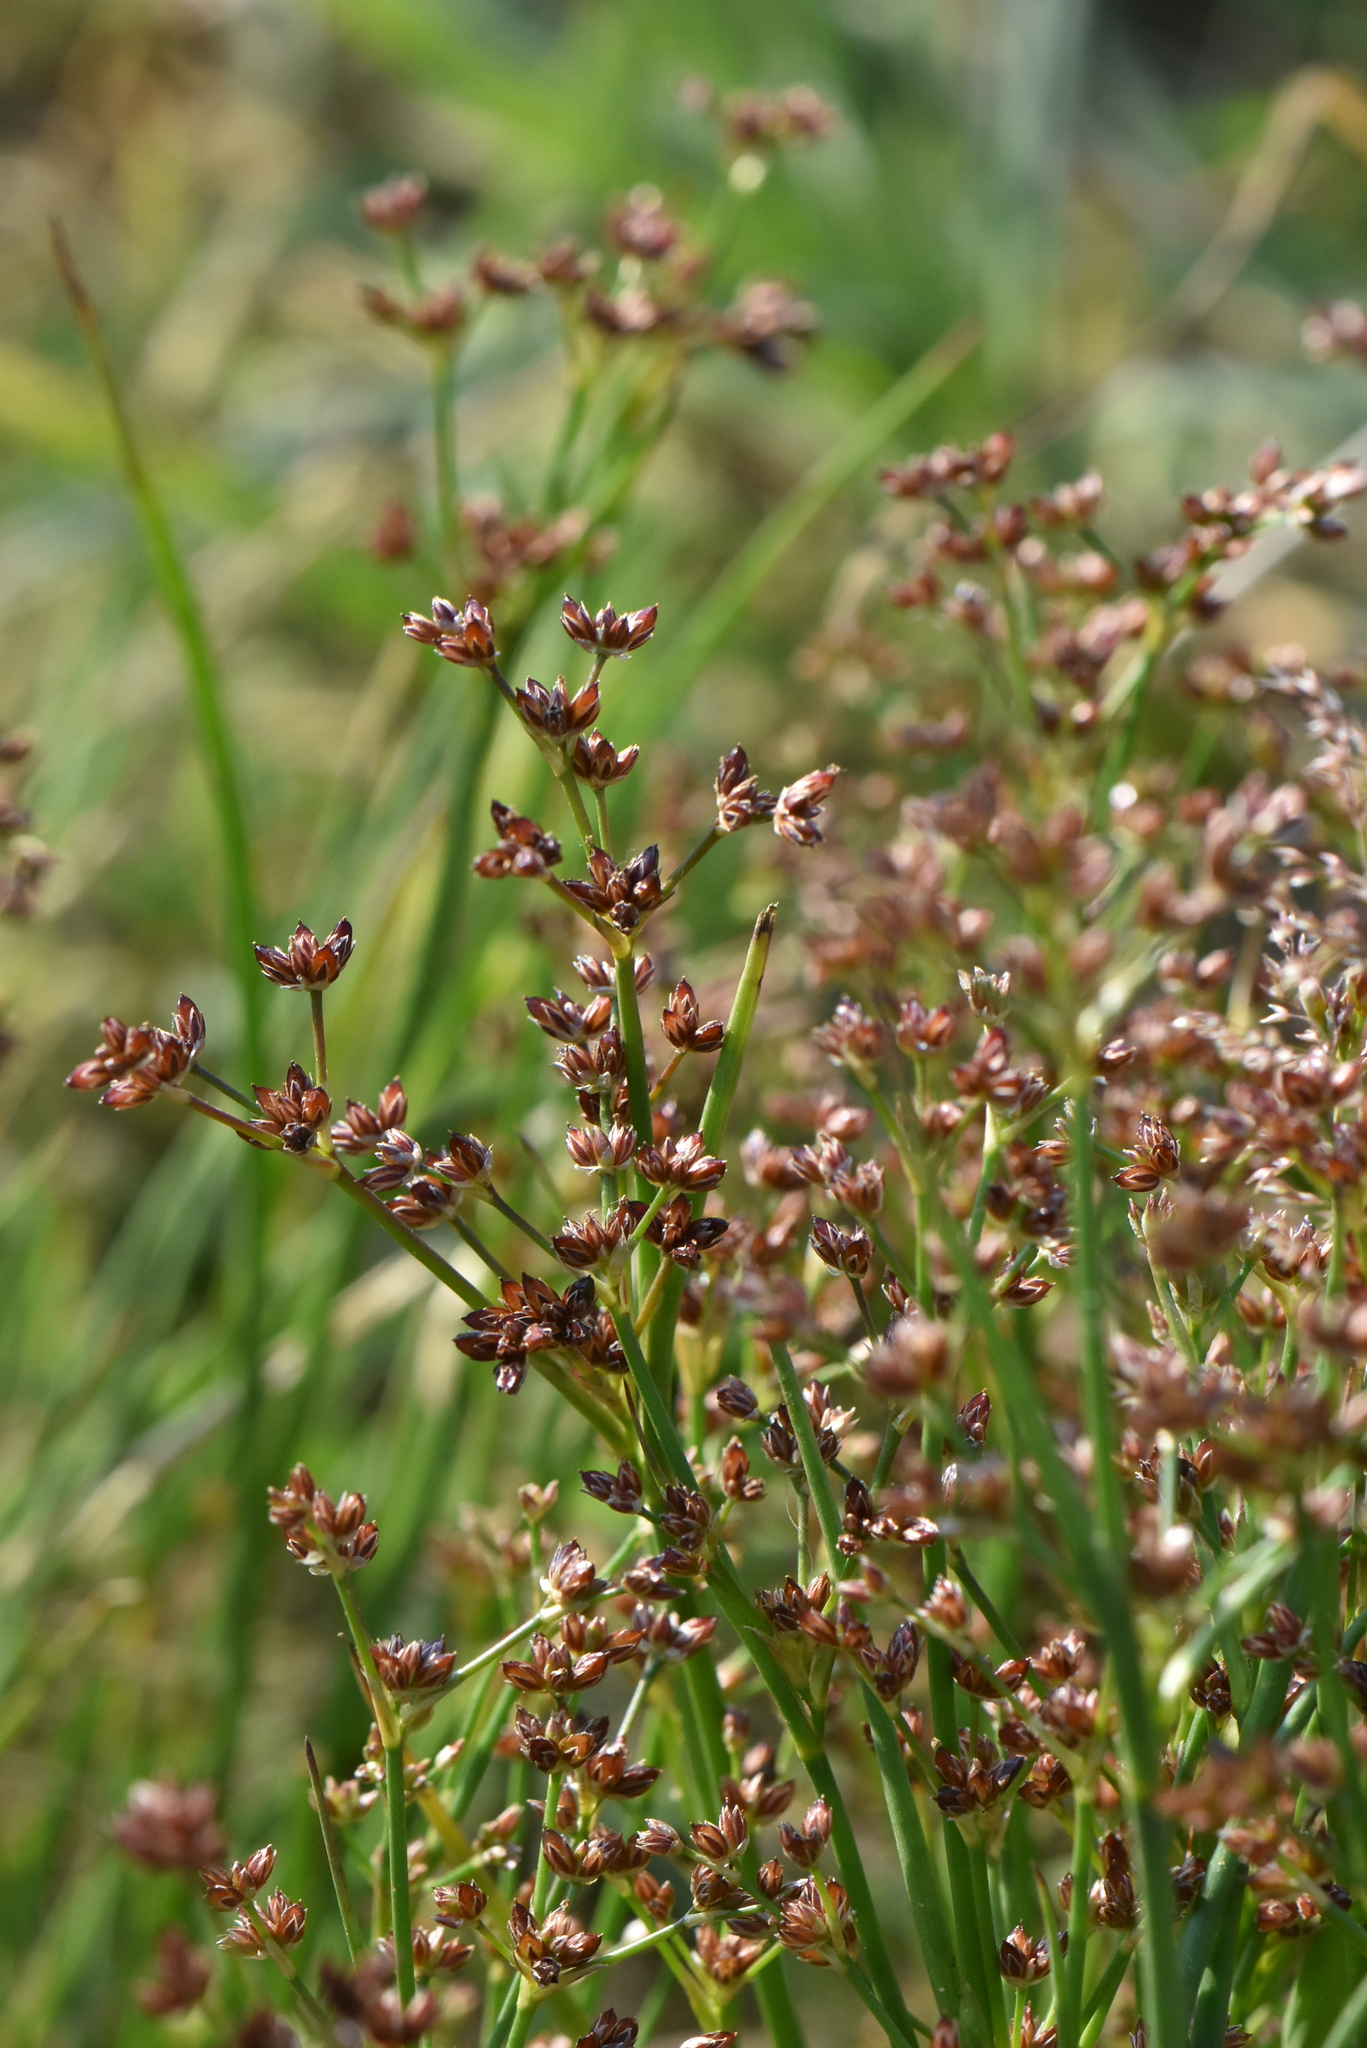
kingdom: Plantae
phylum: Tracheophyta
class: Liliopsida
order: Poales
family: Juncaceae
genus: Juncus
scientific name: Juncus articulatus
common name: Jointed rush
